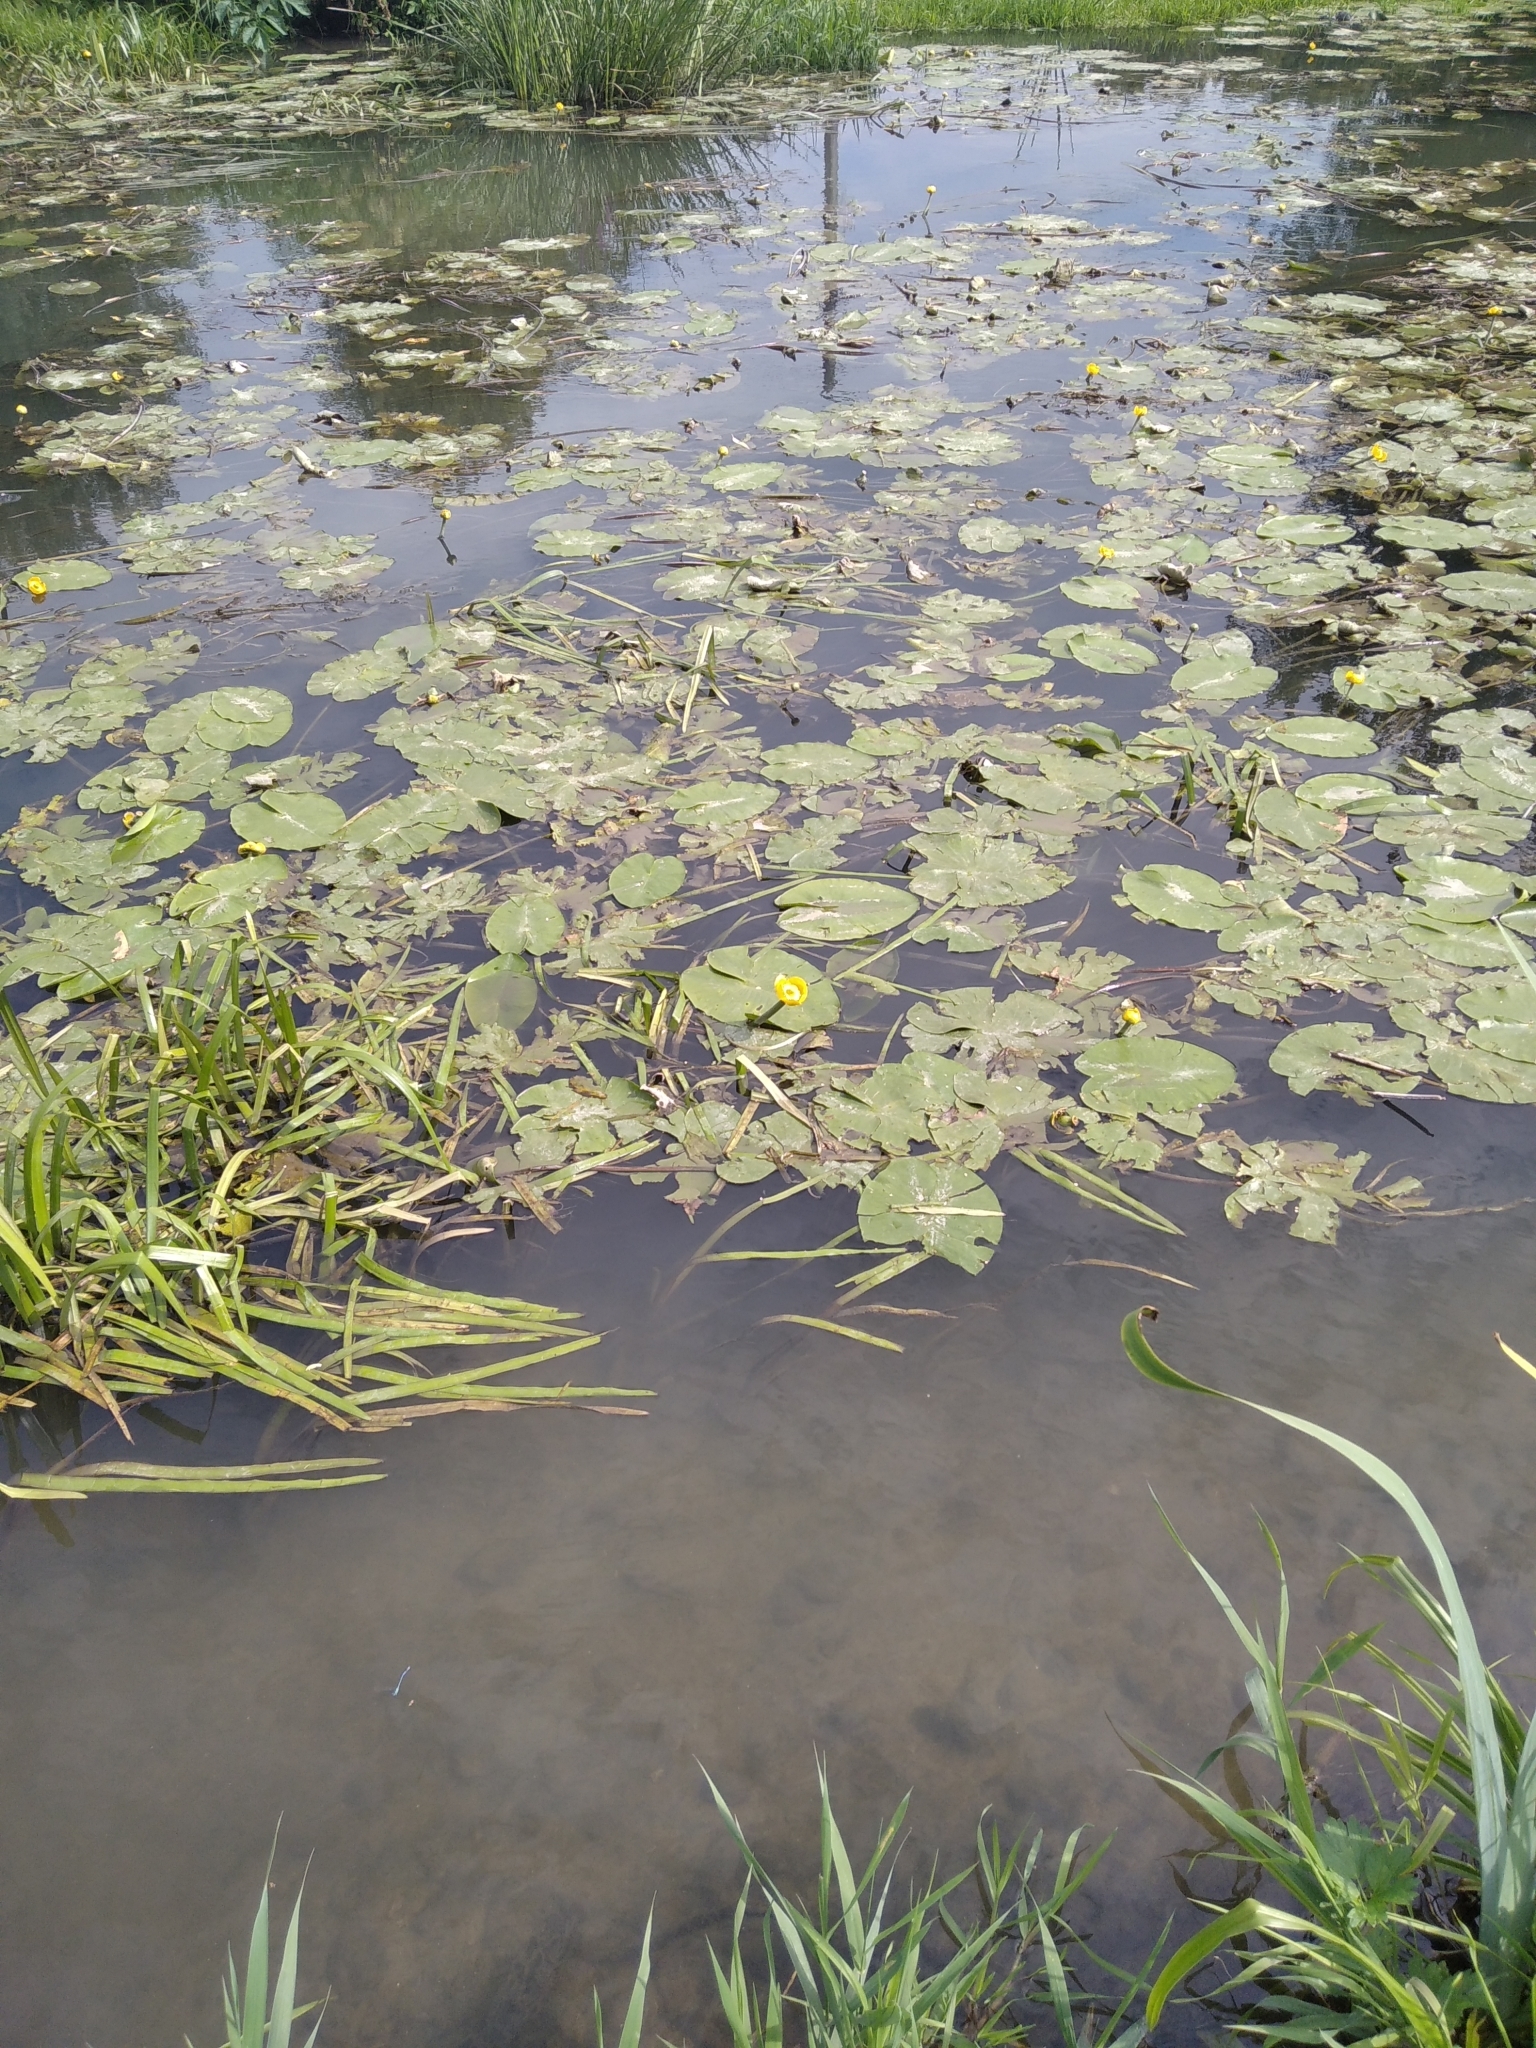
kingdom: Plantae
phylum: Tracheophyta
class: Magnoliopsida
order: Nymphaeales
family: Nymphaeaceae
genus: Nuphar
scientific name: Nuphar lutea
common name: Yellow water-lily
